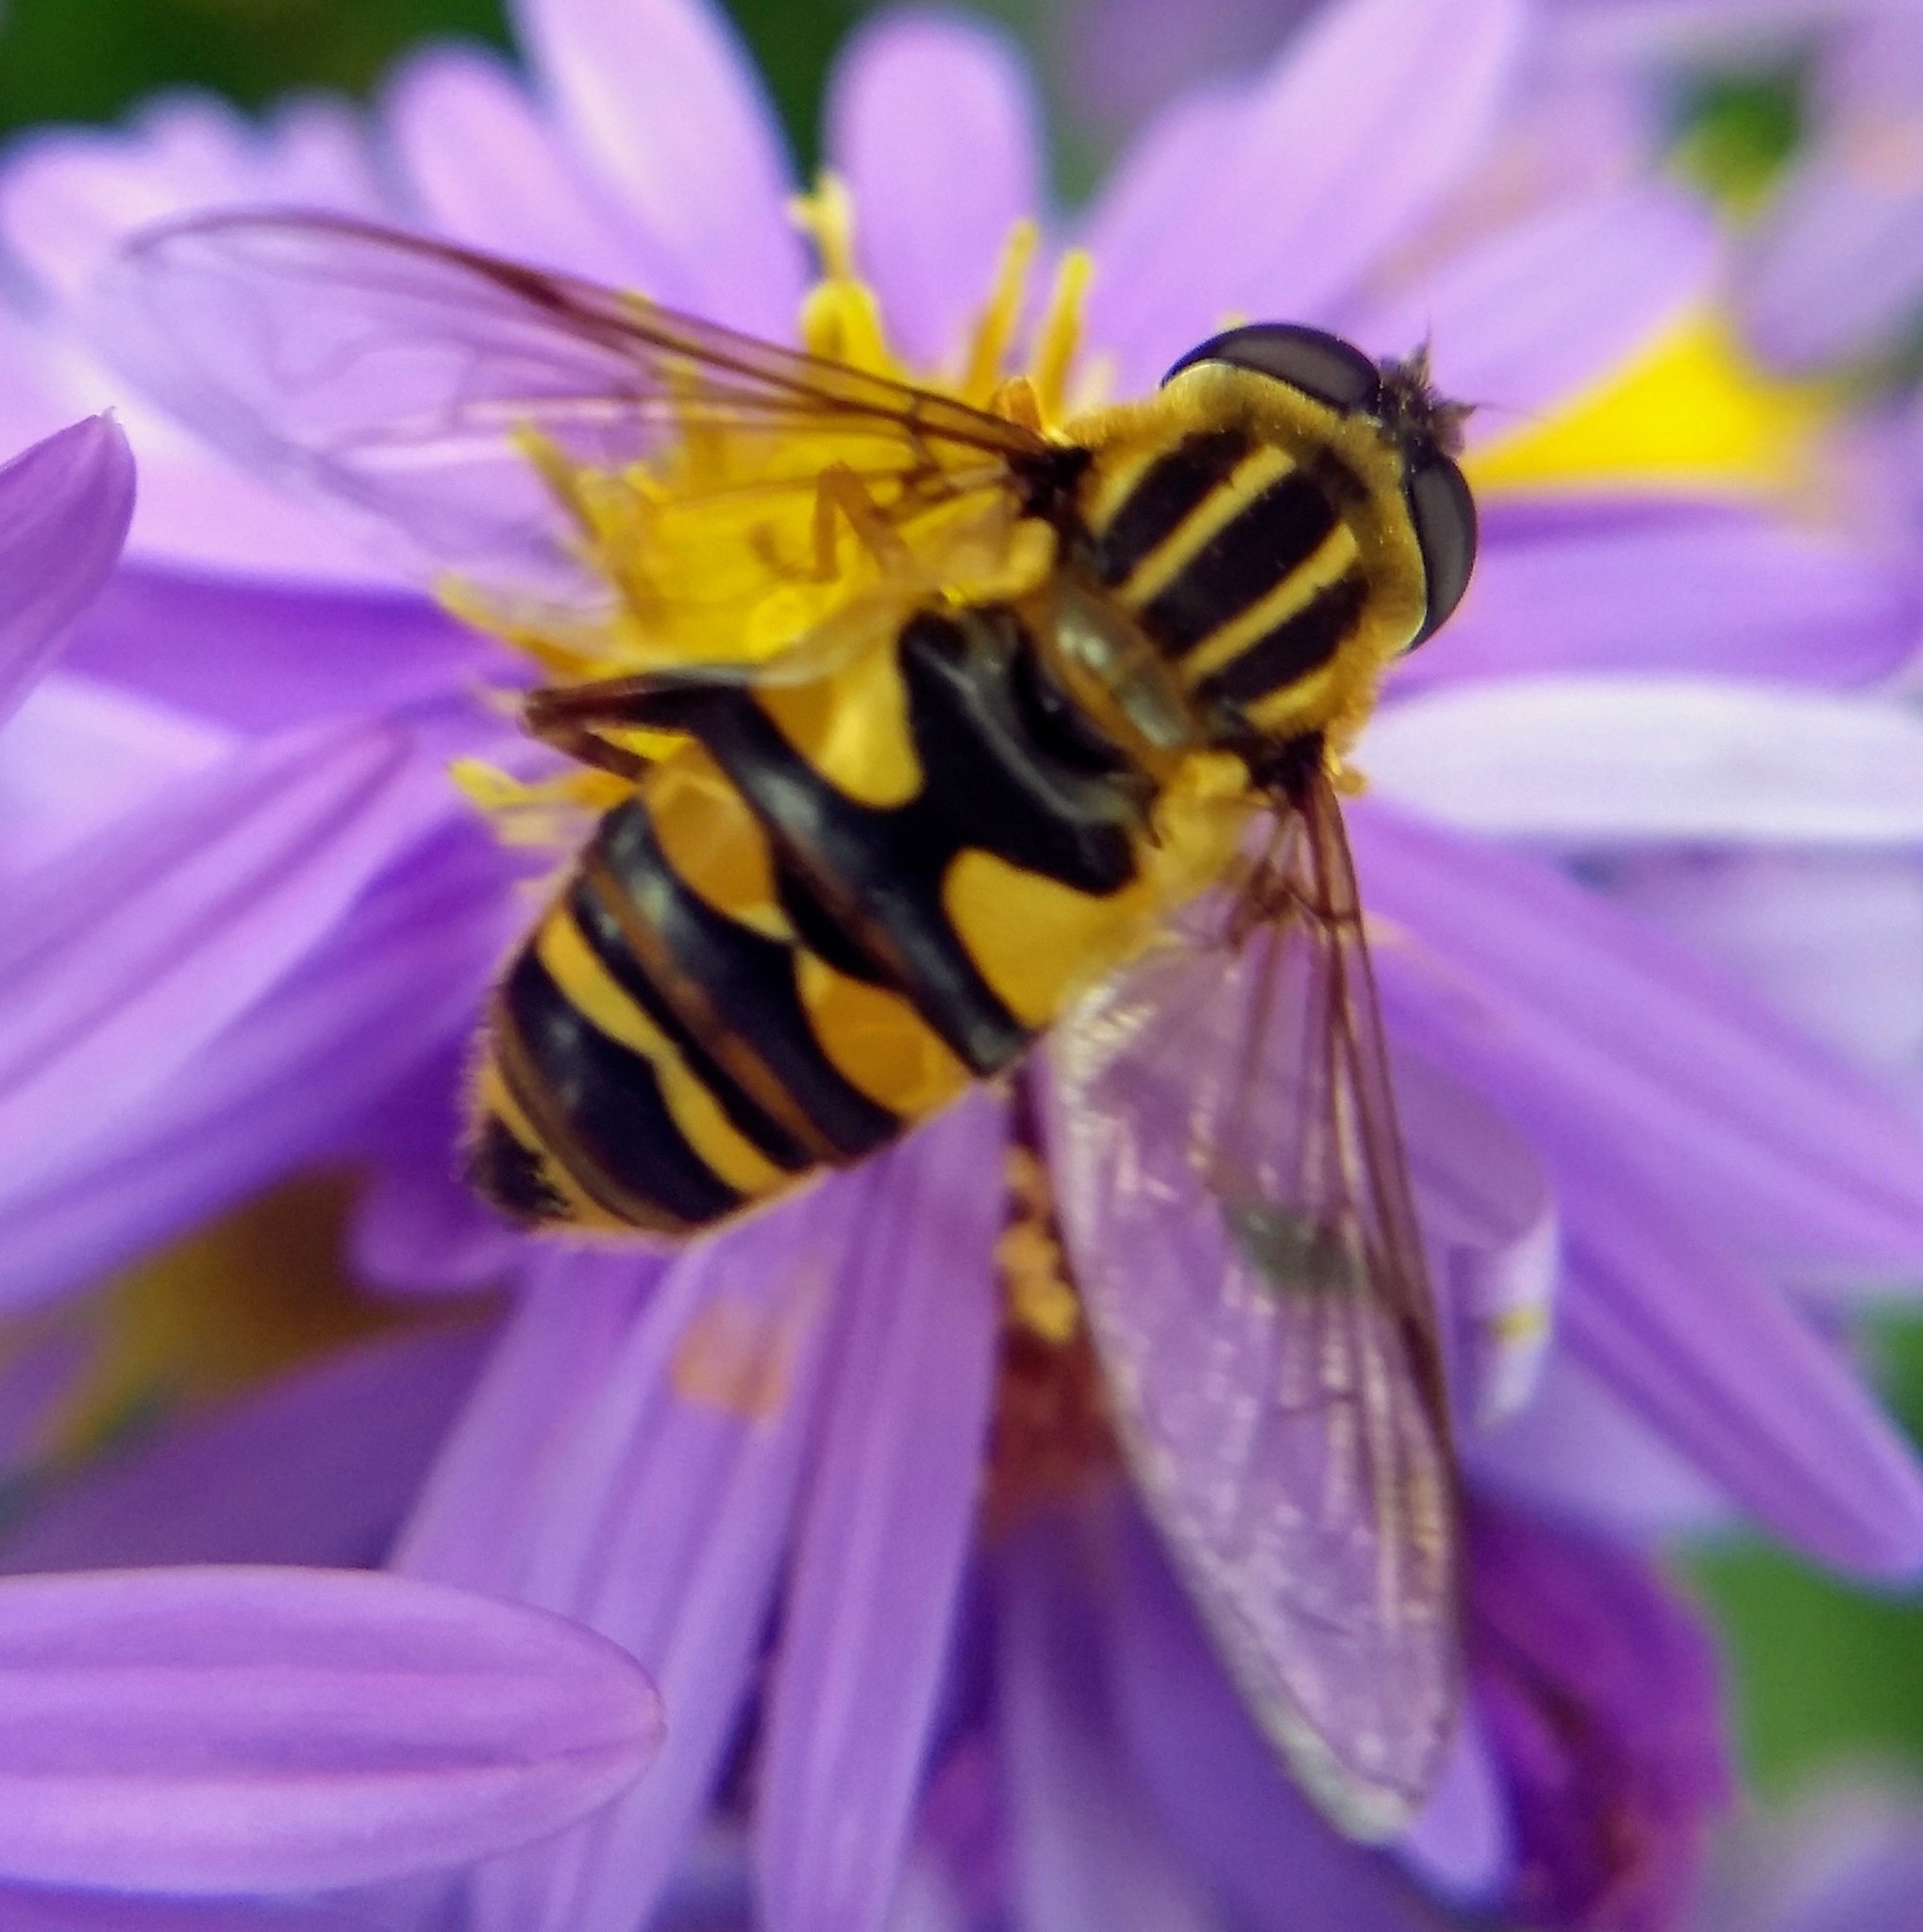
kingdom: Animalia
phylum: Arthropoda
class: Insecta
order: Diptera
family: Syrphidae
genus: Helophilus
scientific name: Helophilus fasciatus
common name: Narrow-headed marsh fly
